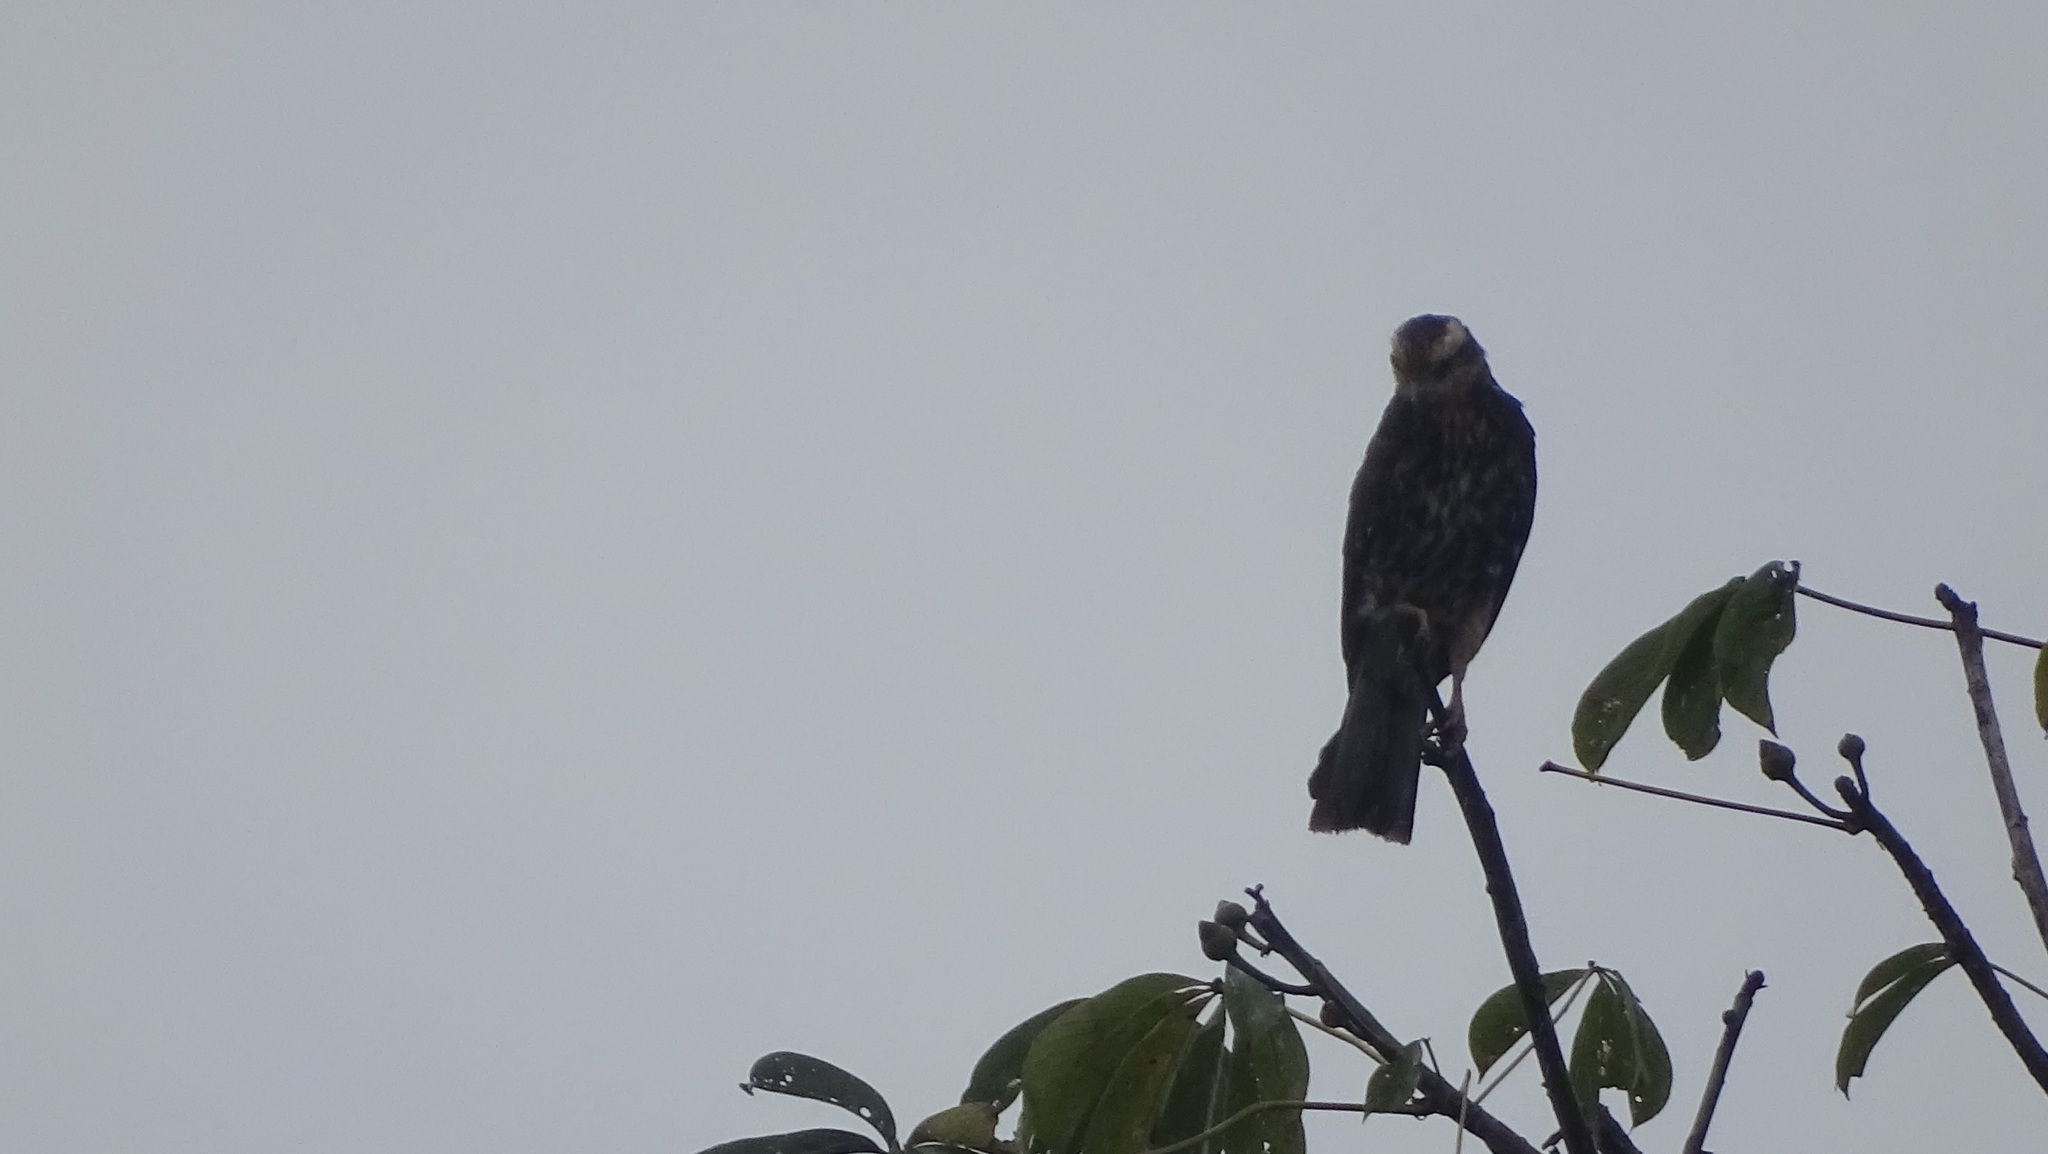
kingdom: Animalia
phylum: Chordata
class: Aves
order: Accipitriformes
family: Accipitridae
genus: Rostrhamus
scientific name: Rostrhamus sociabilis
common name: Snail kite
